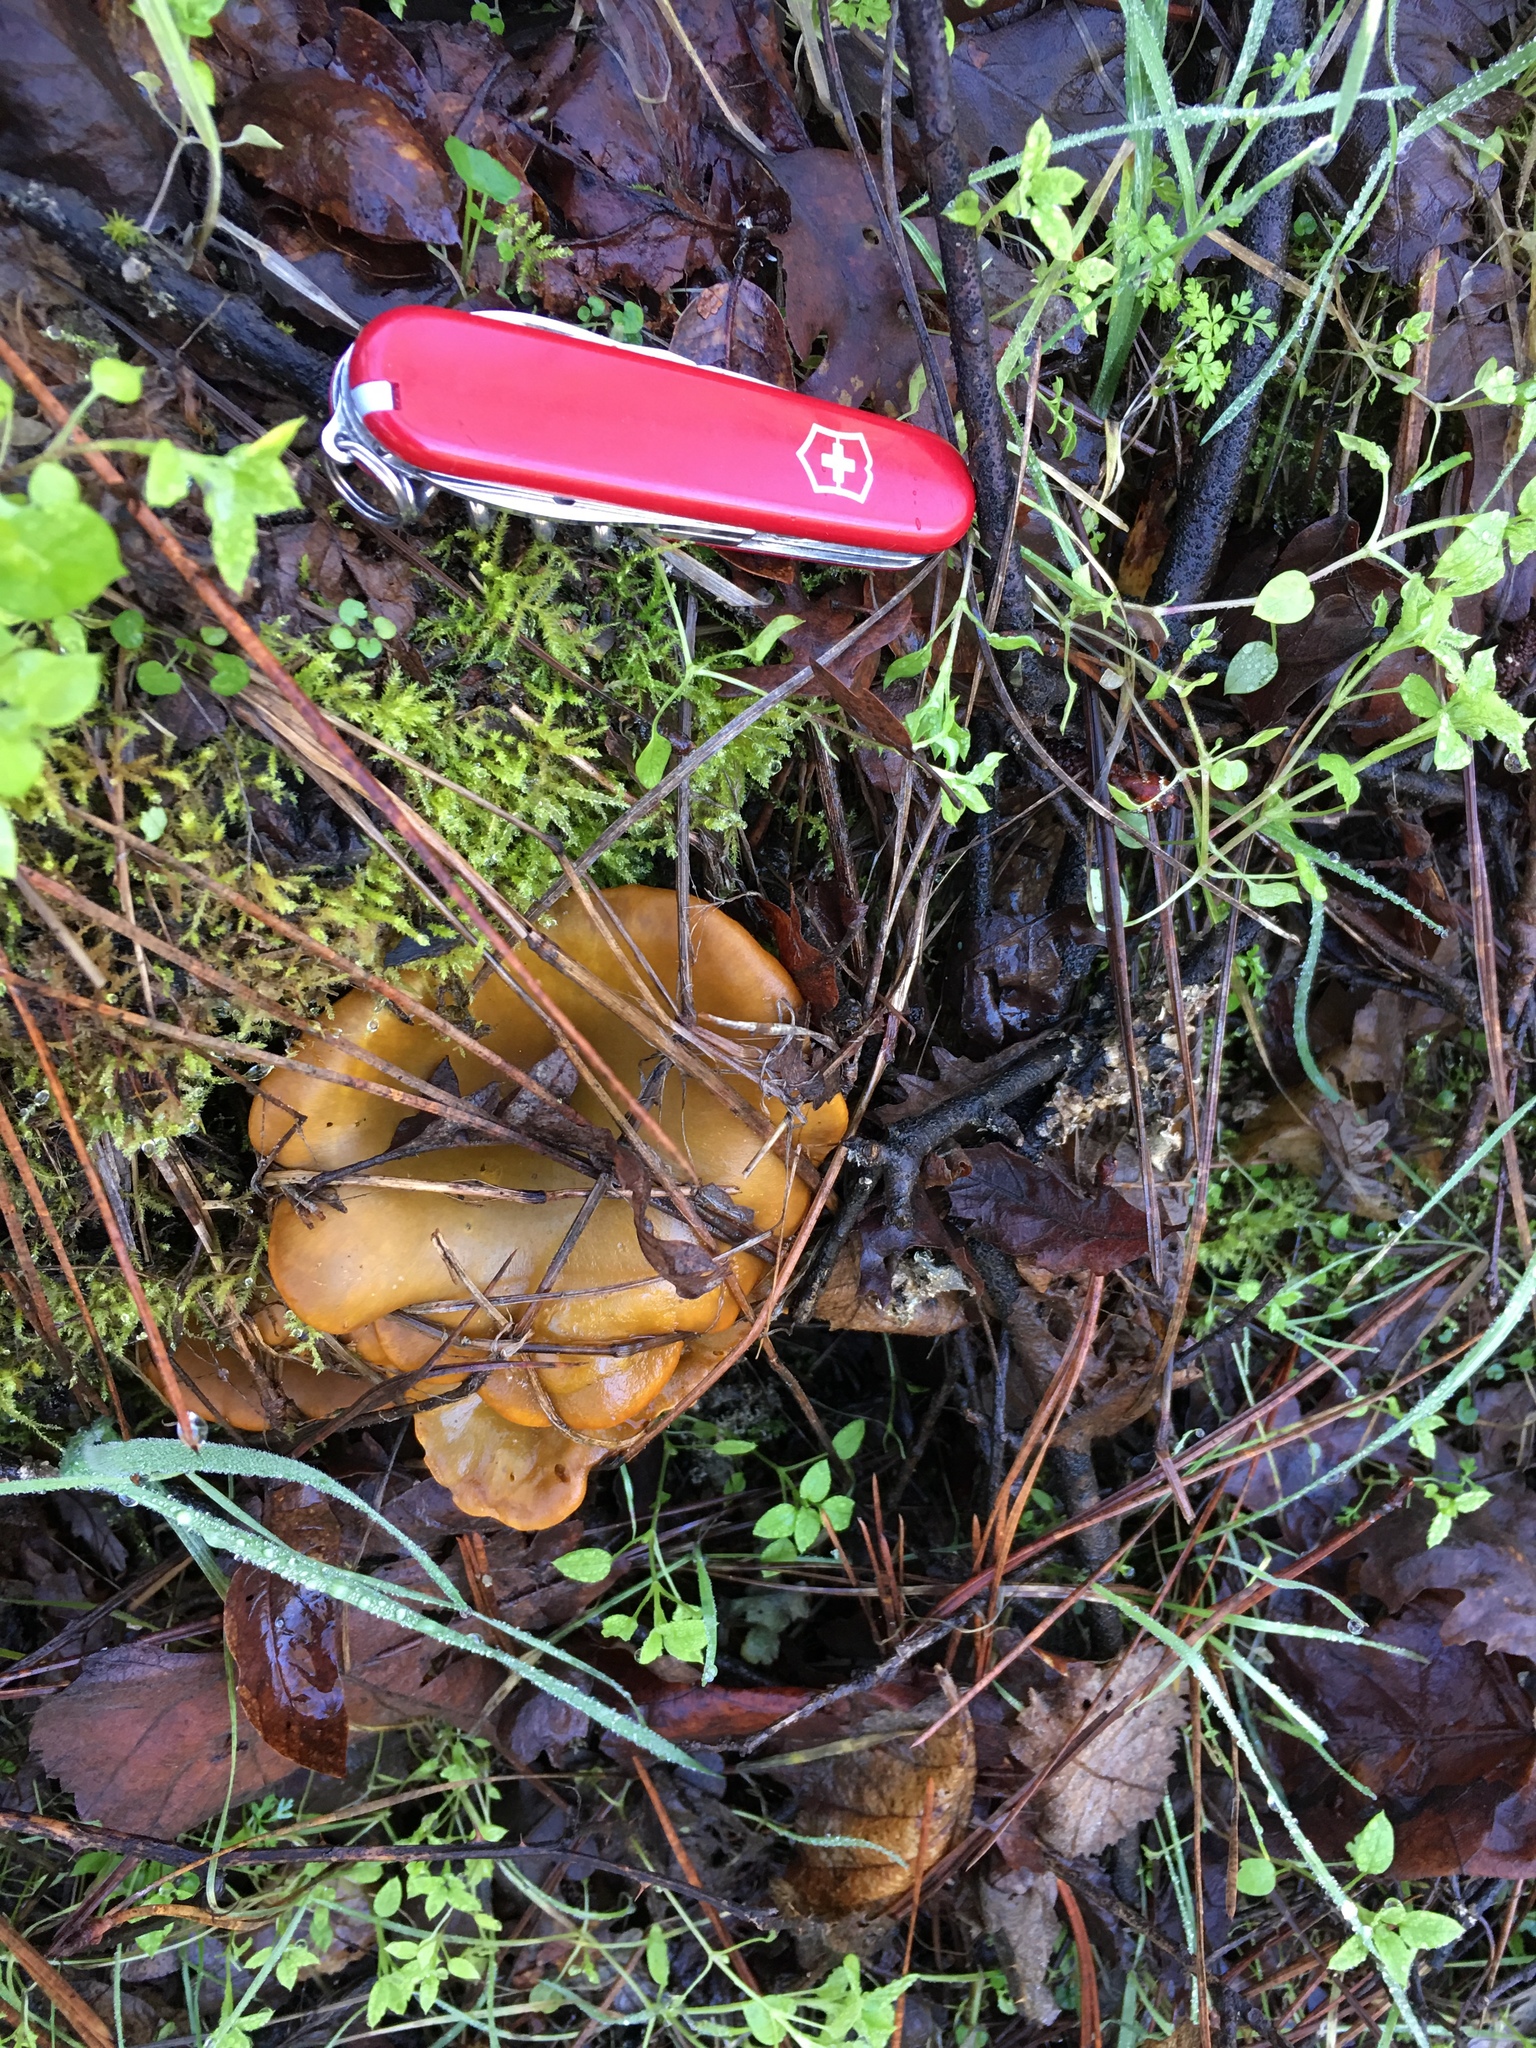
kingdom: Fungi
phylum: Basidiomycota
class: Agaricomycetes
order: Agaricales
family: Omphalotaceae
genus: Omphalotus
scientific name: Omphalotus olivascens
